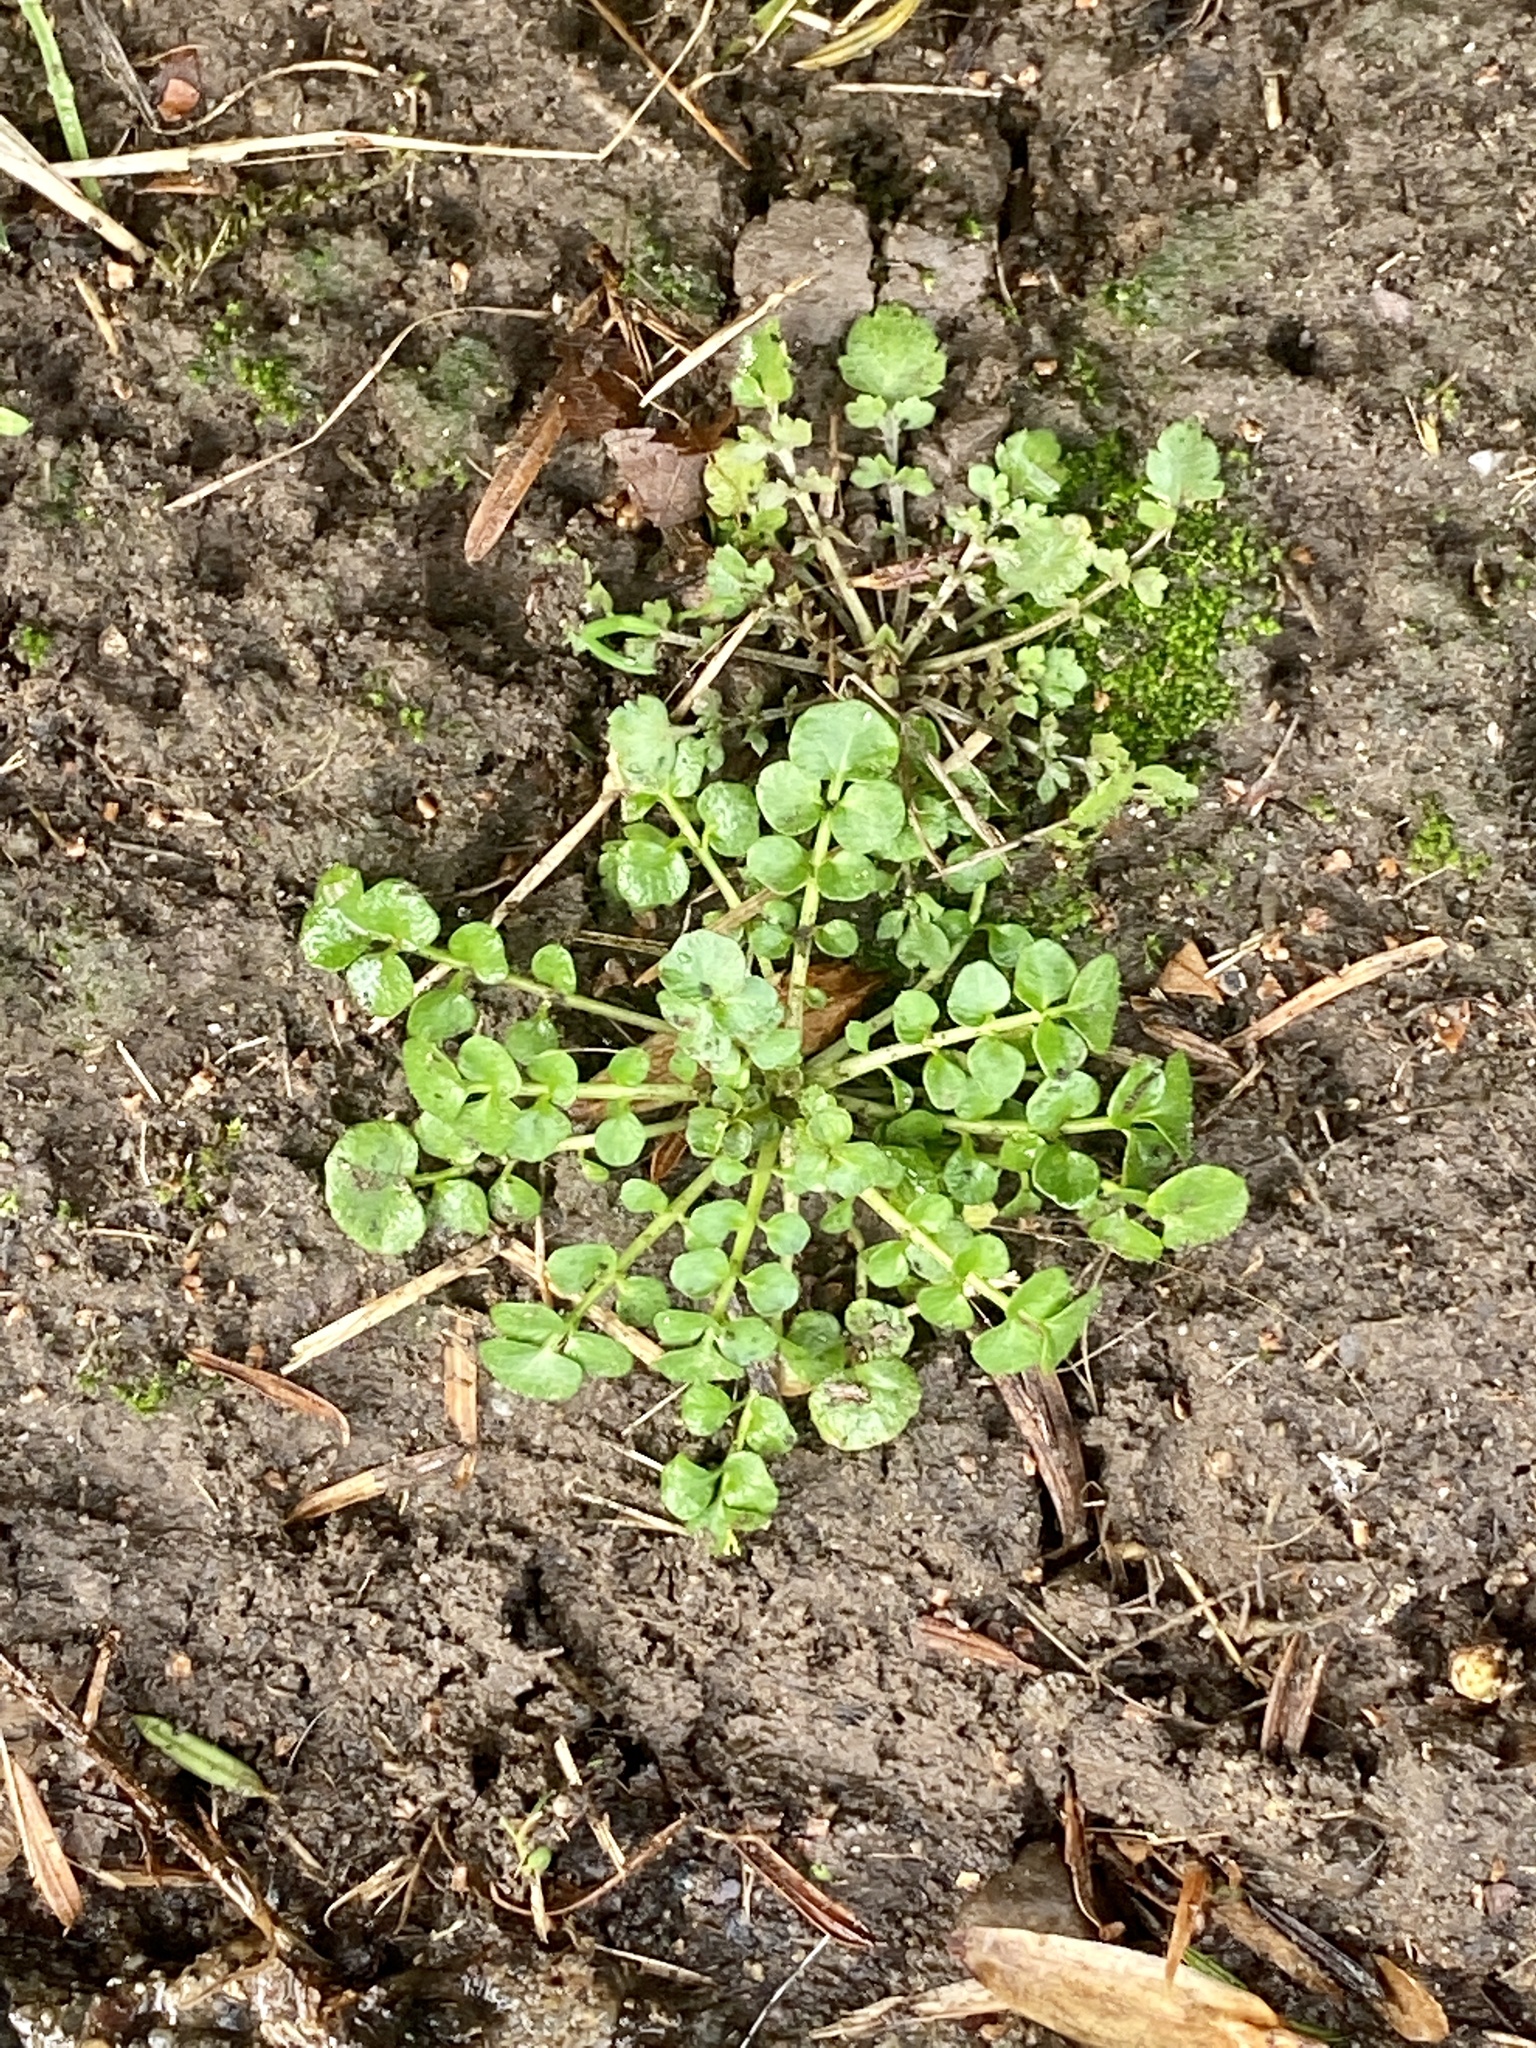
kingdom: Plantae
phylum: Tracheophyta
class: Magnoliopsida
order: Brassicales
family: Brassicaceae
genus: Cardamine
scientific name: Cardamine hirsuta
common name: Hairy bittercress
